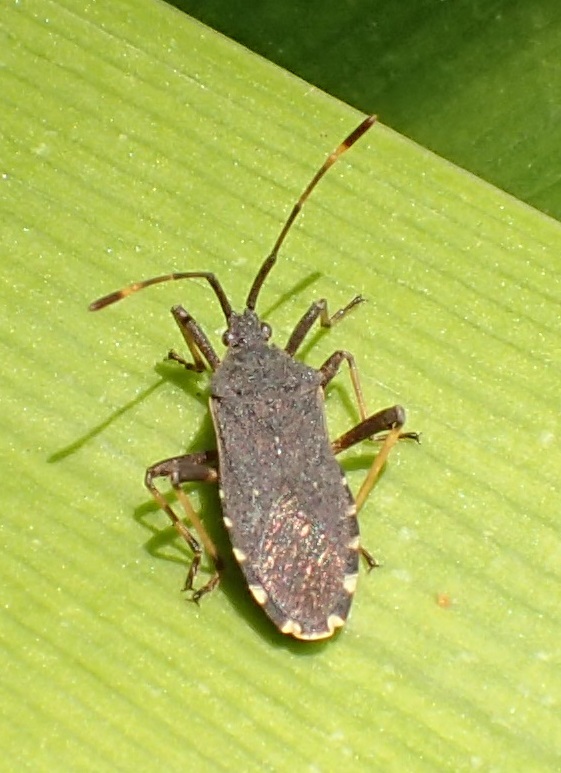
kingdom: Animalia
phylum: Arthropoda
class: Insecta
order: Hemiptera
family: Coreidae
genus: Gelonus
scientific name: Gelonus tasmanicus
